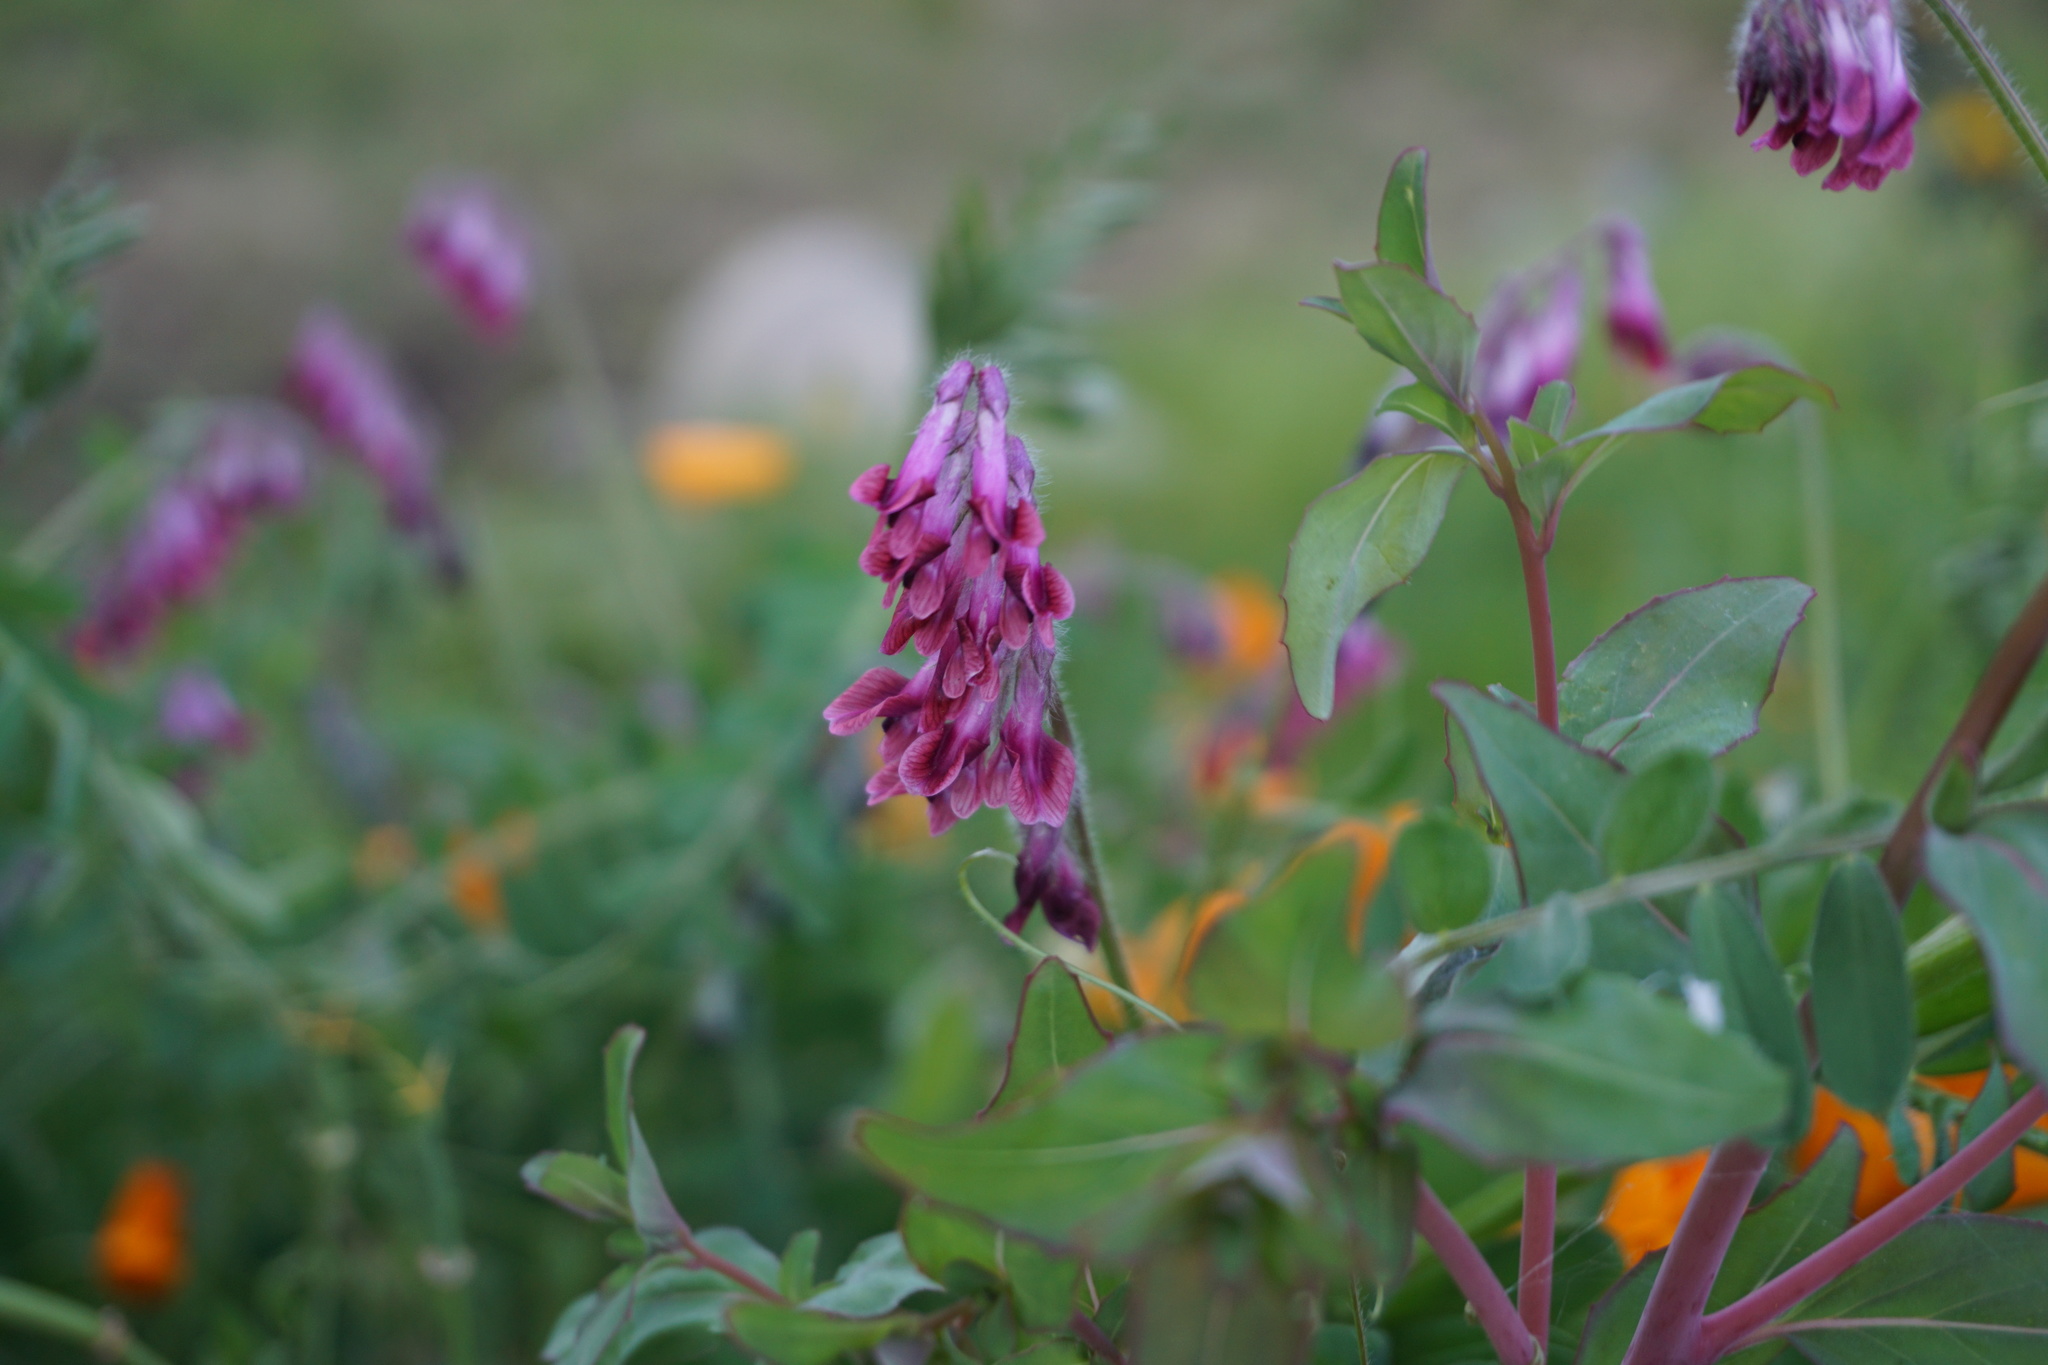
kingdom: Plantae
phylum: Tracheophyta
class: Magnoliopsida
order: Fabales
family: Fabaceae
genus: Vicia
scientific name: Vicia benghalensis
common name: Purple vetch
